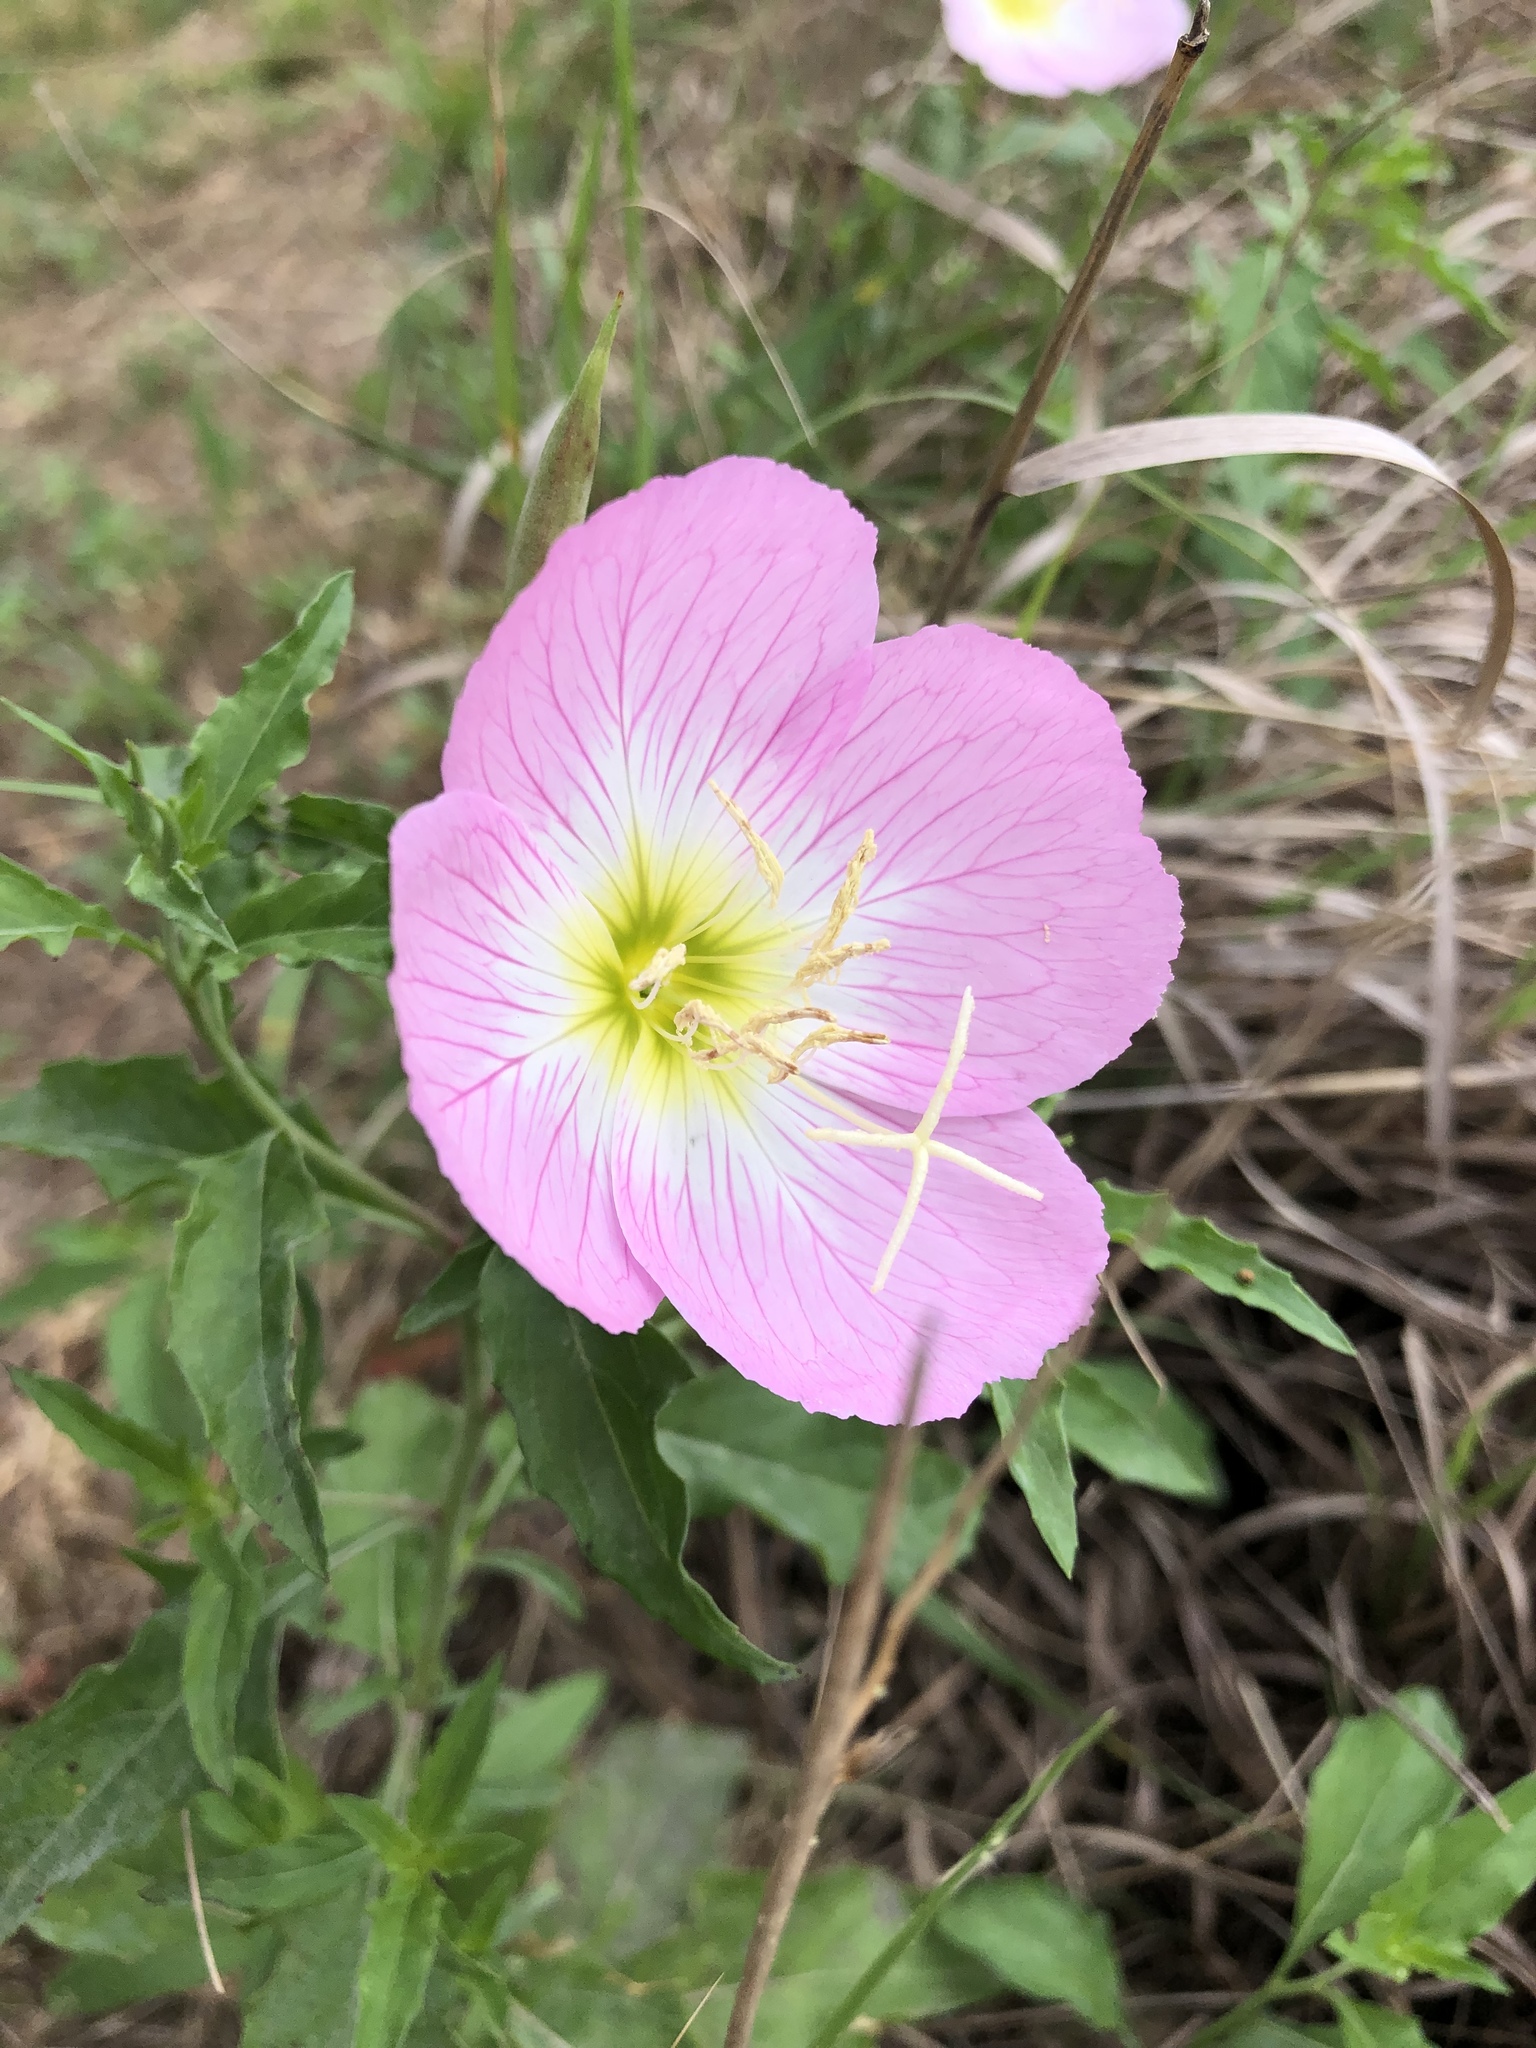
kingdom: Plantae
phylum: Tracheophyta
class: Magnoliopsida
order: Myrtales
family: Onagraceae
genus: Oenothera
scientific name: Oenothera speciosa
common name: White evening-primrose
